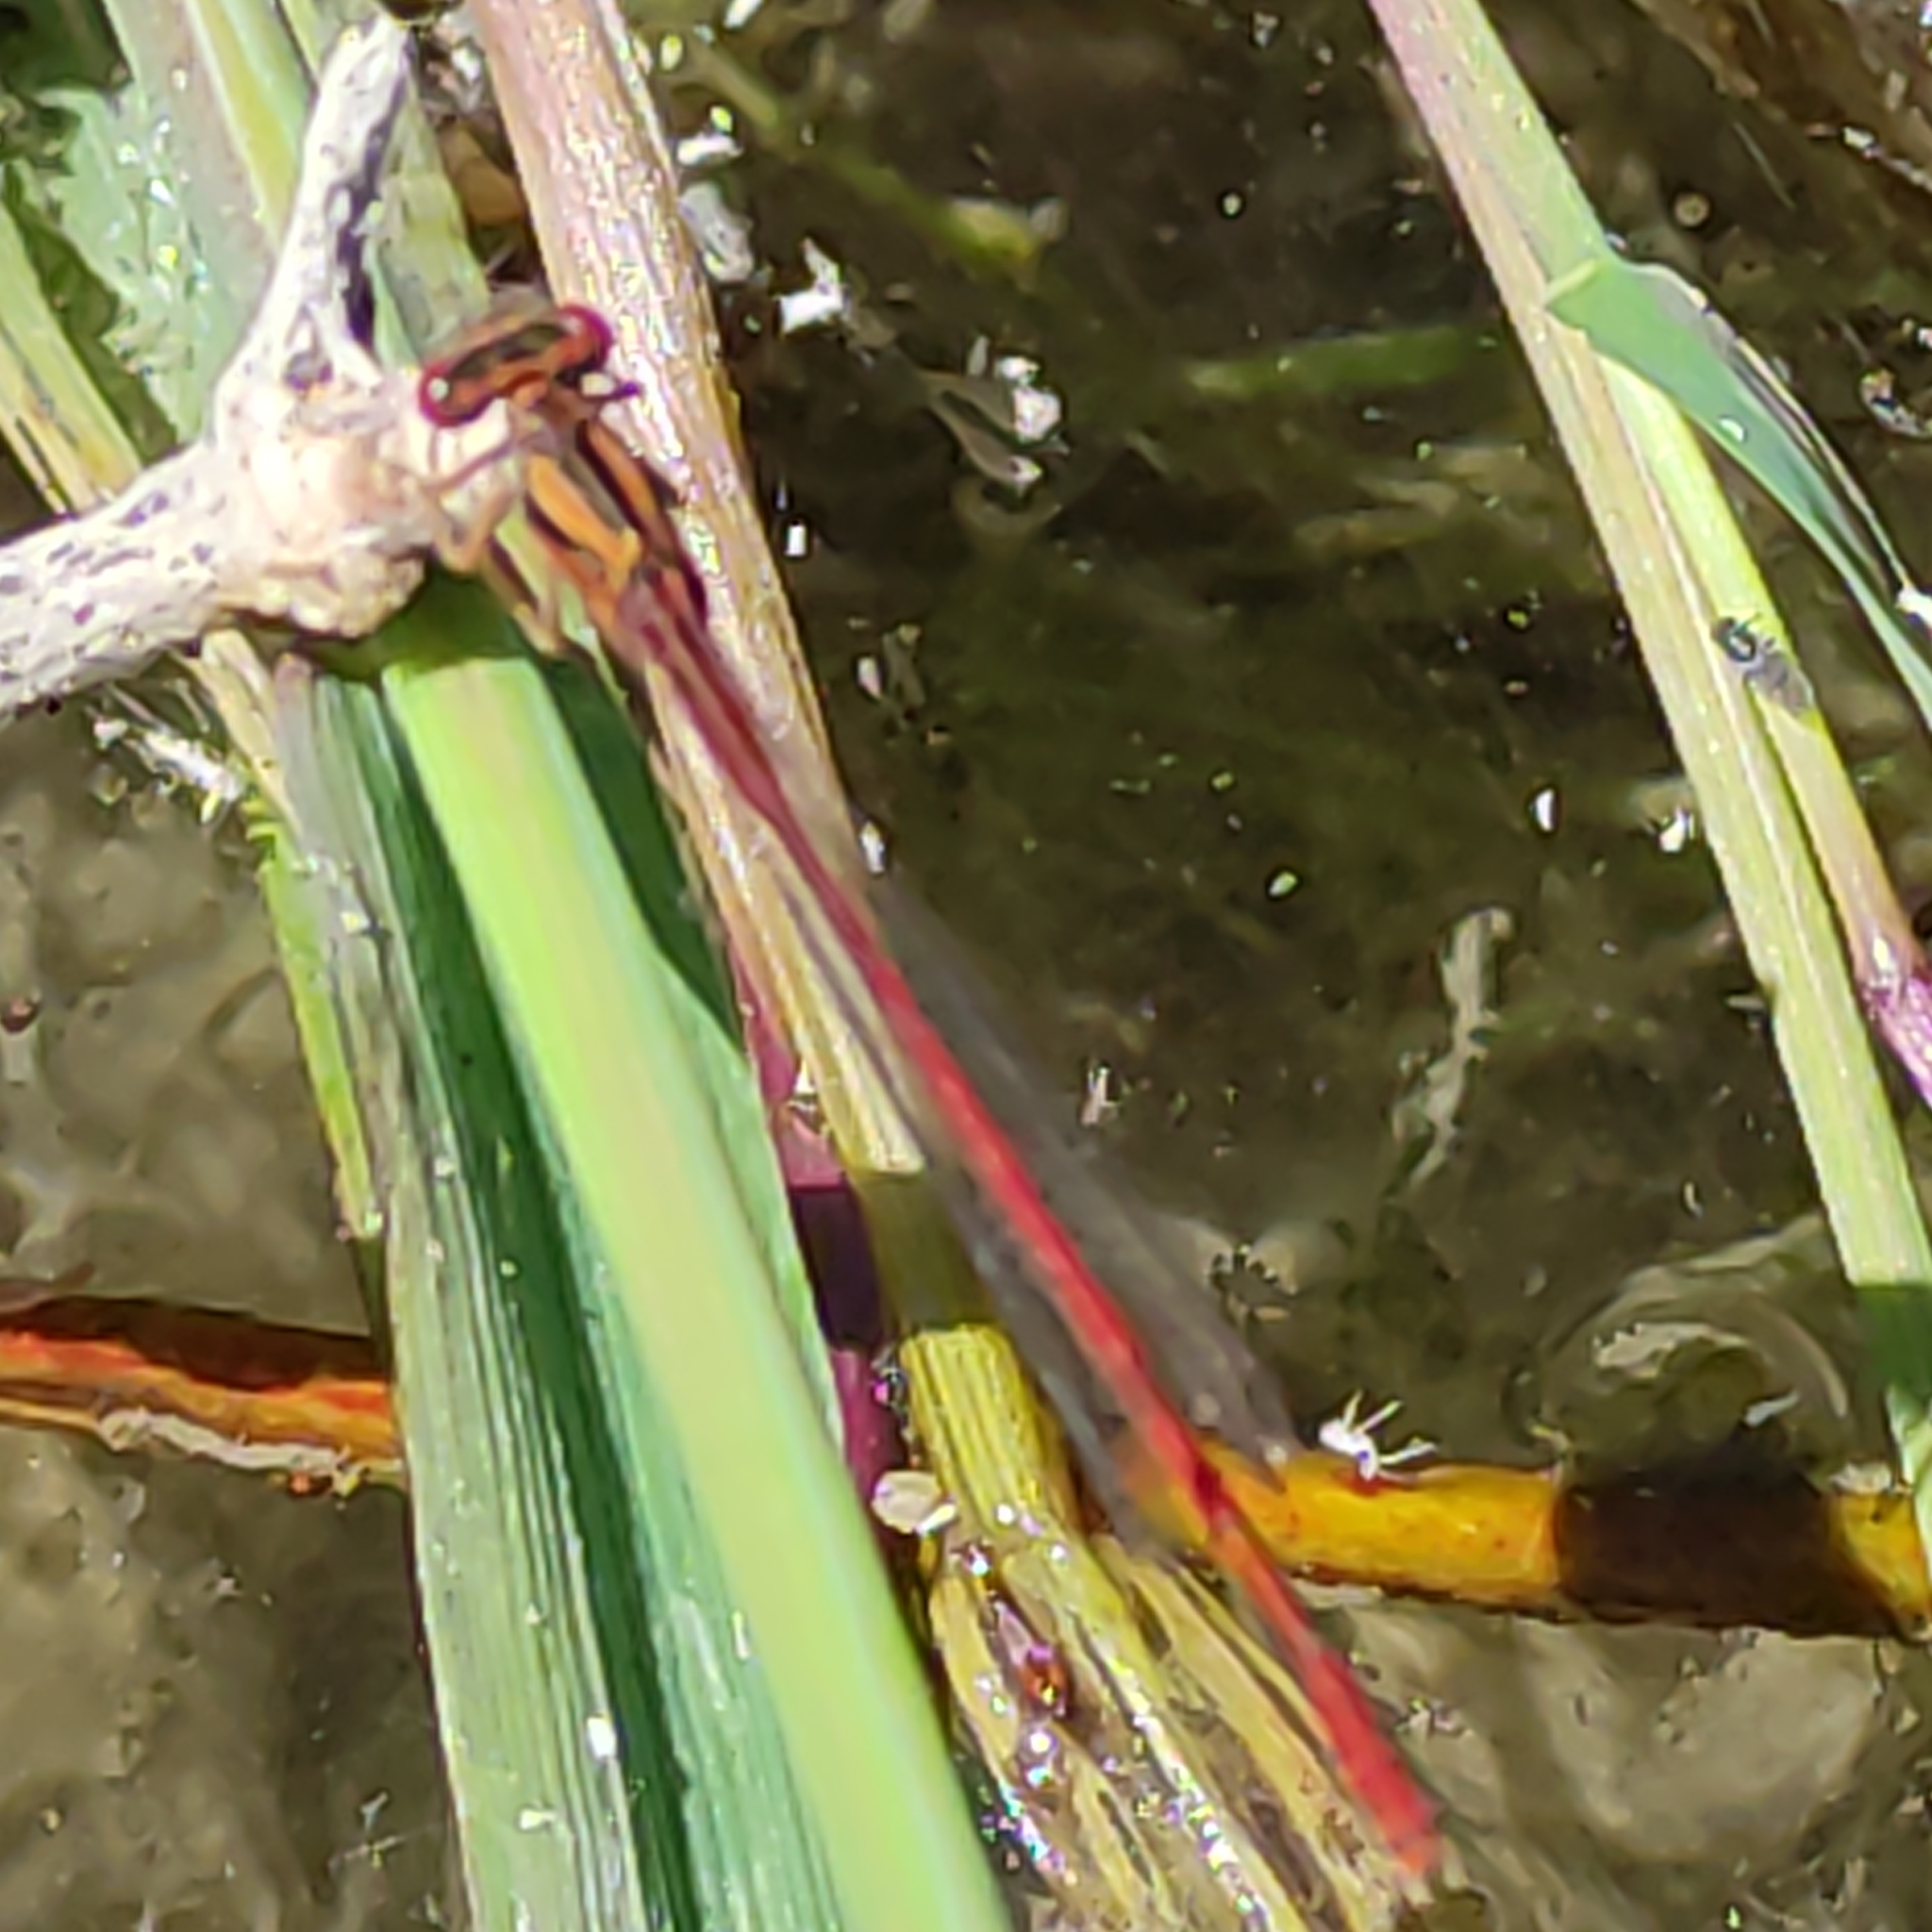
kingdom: Animalia
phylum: Arthropoda
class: Insecta
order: Odonata
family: Coenagrionidae
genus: Xanthocnemis
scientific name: Xanthocnemis zealandica
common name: Common redcoat damselfly
